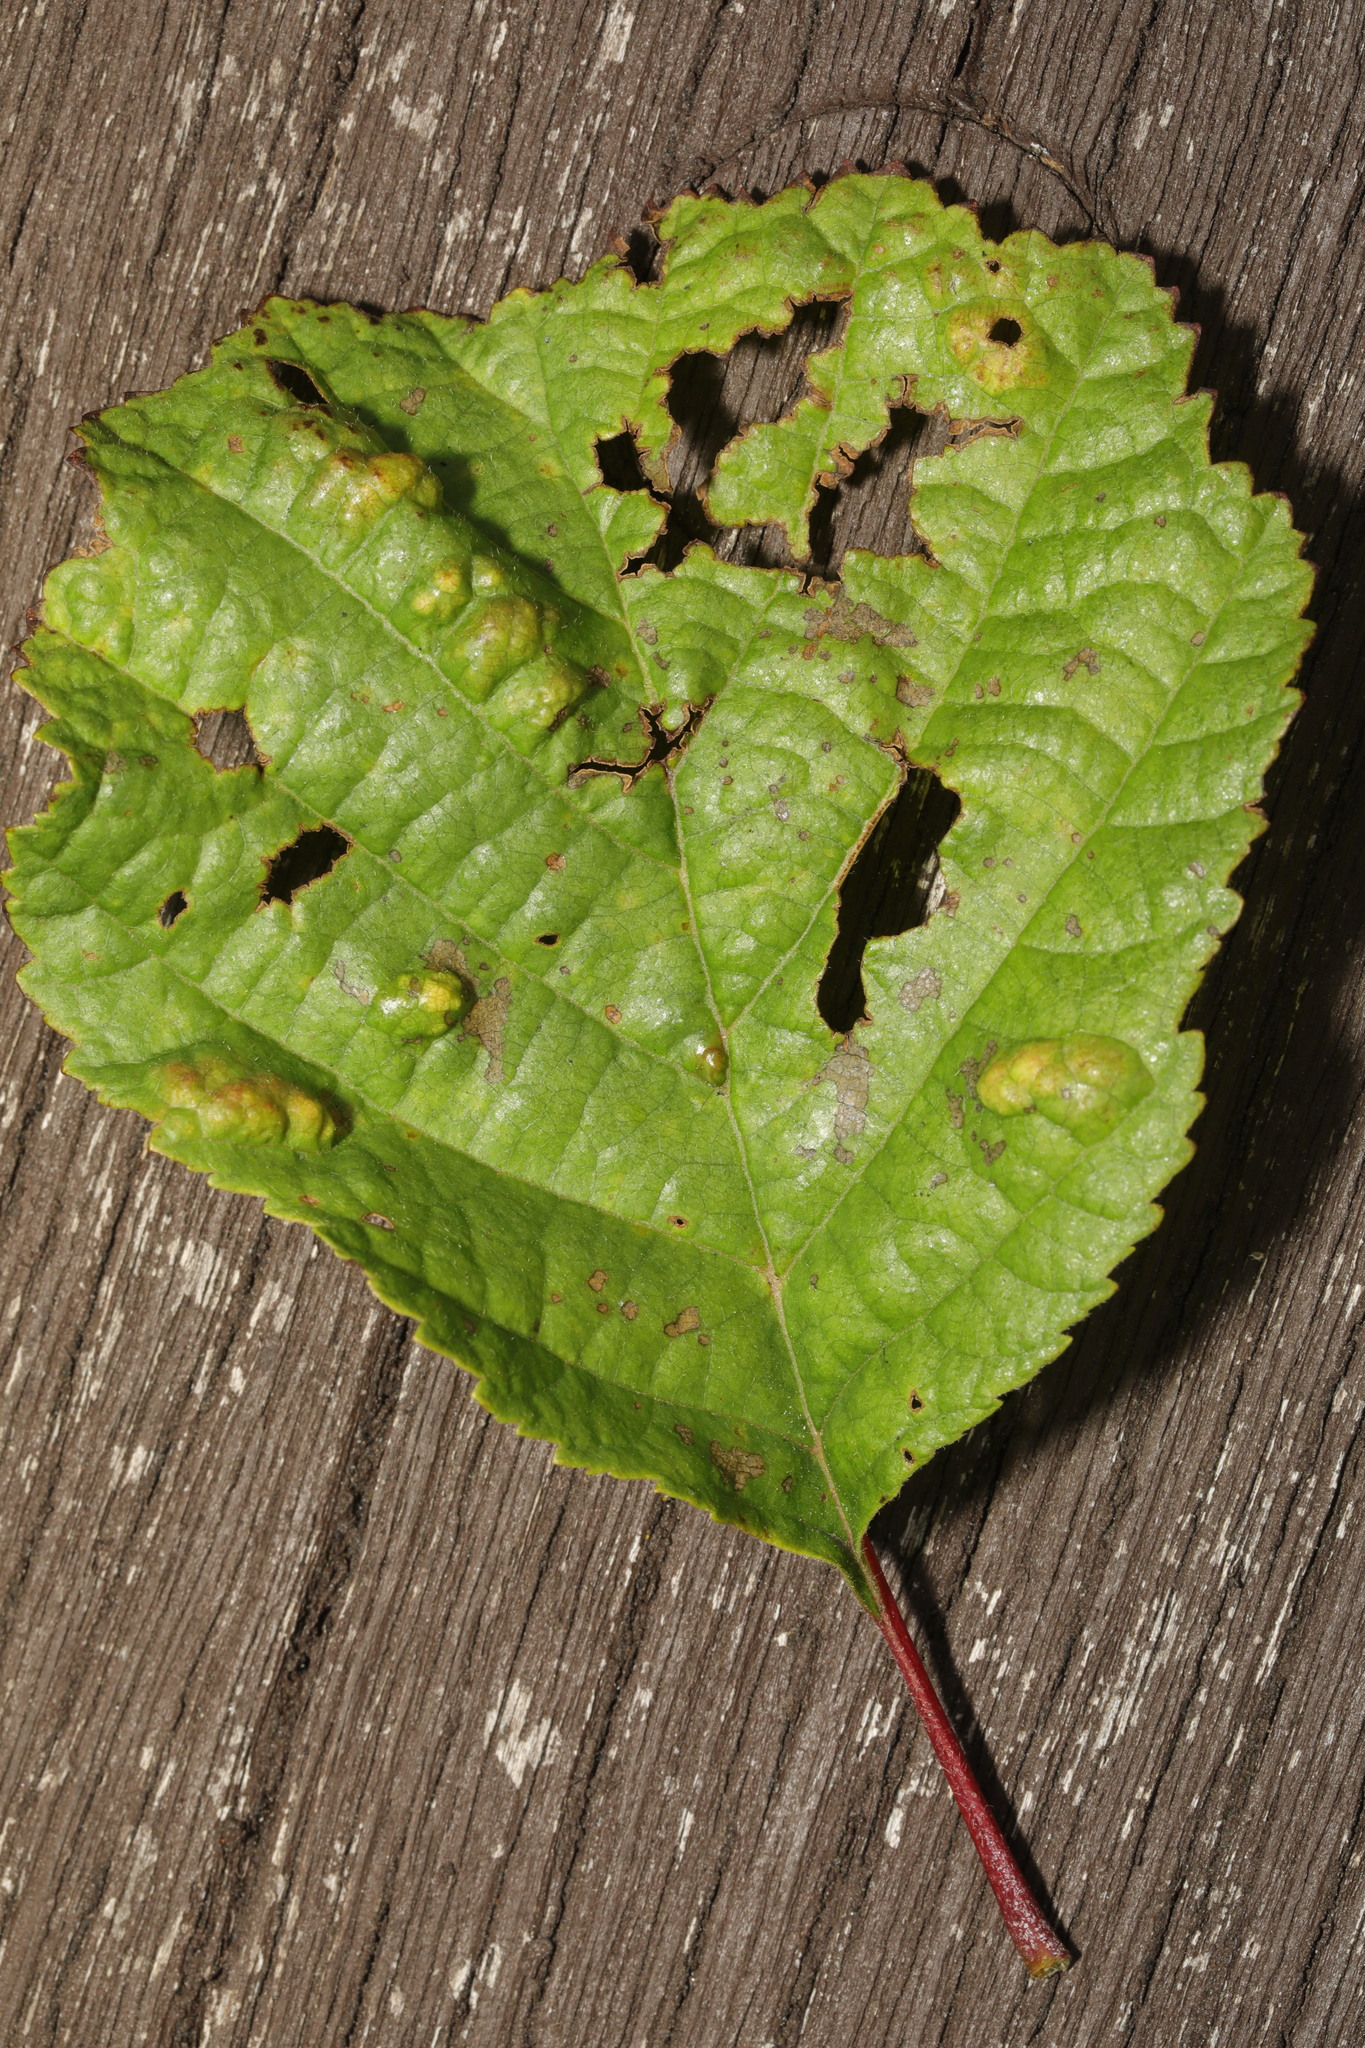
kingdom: Fungi
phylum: Ascomycota
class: Taphrinomycetes
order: Taphrinales
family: Taphrinaceae
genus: Taphrina
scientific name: Taphrina tosquinetii
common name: Alder wrinkle
